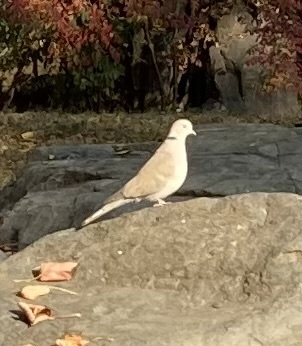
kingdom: Animalia
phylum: Chordata
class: Aves
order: Columbiformes
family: Columbidae
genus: Streptopelia
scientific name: Streptopelia decaocto
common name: Eurasian collared dove
